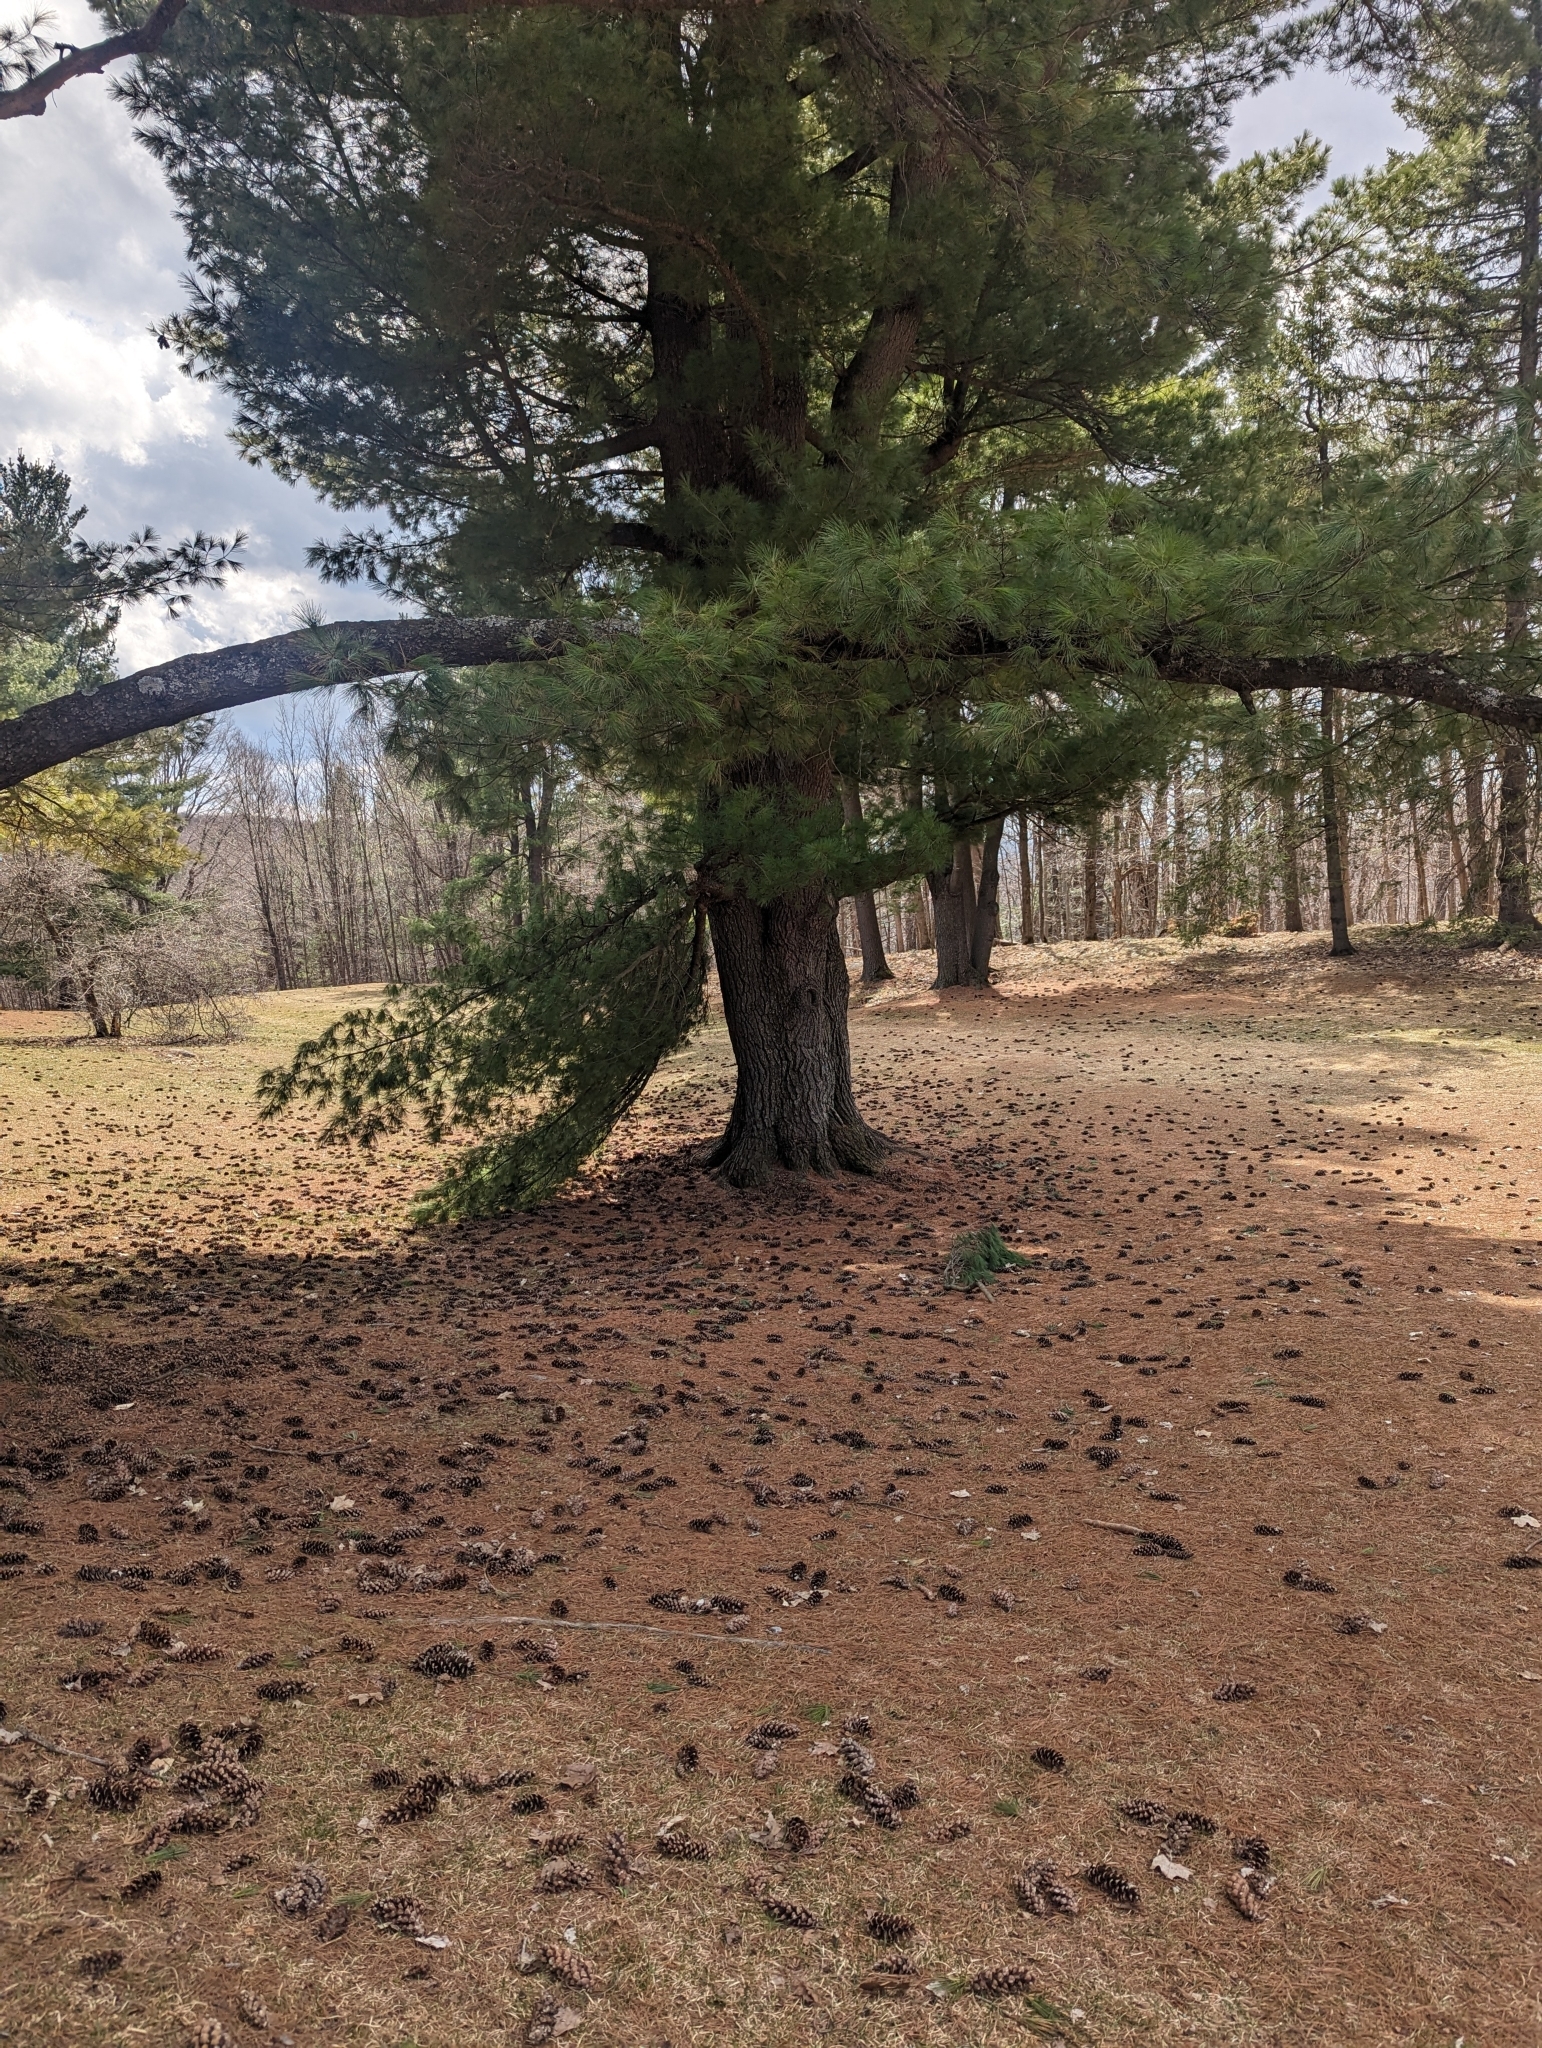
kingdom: Plantae
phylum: Tracheophyta
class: Pinopsida
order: Pinales
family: Pinaceae
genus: Pinus
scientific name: Pinus strobus
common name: Weymouth pine
